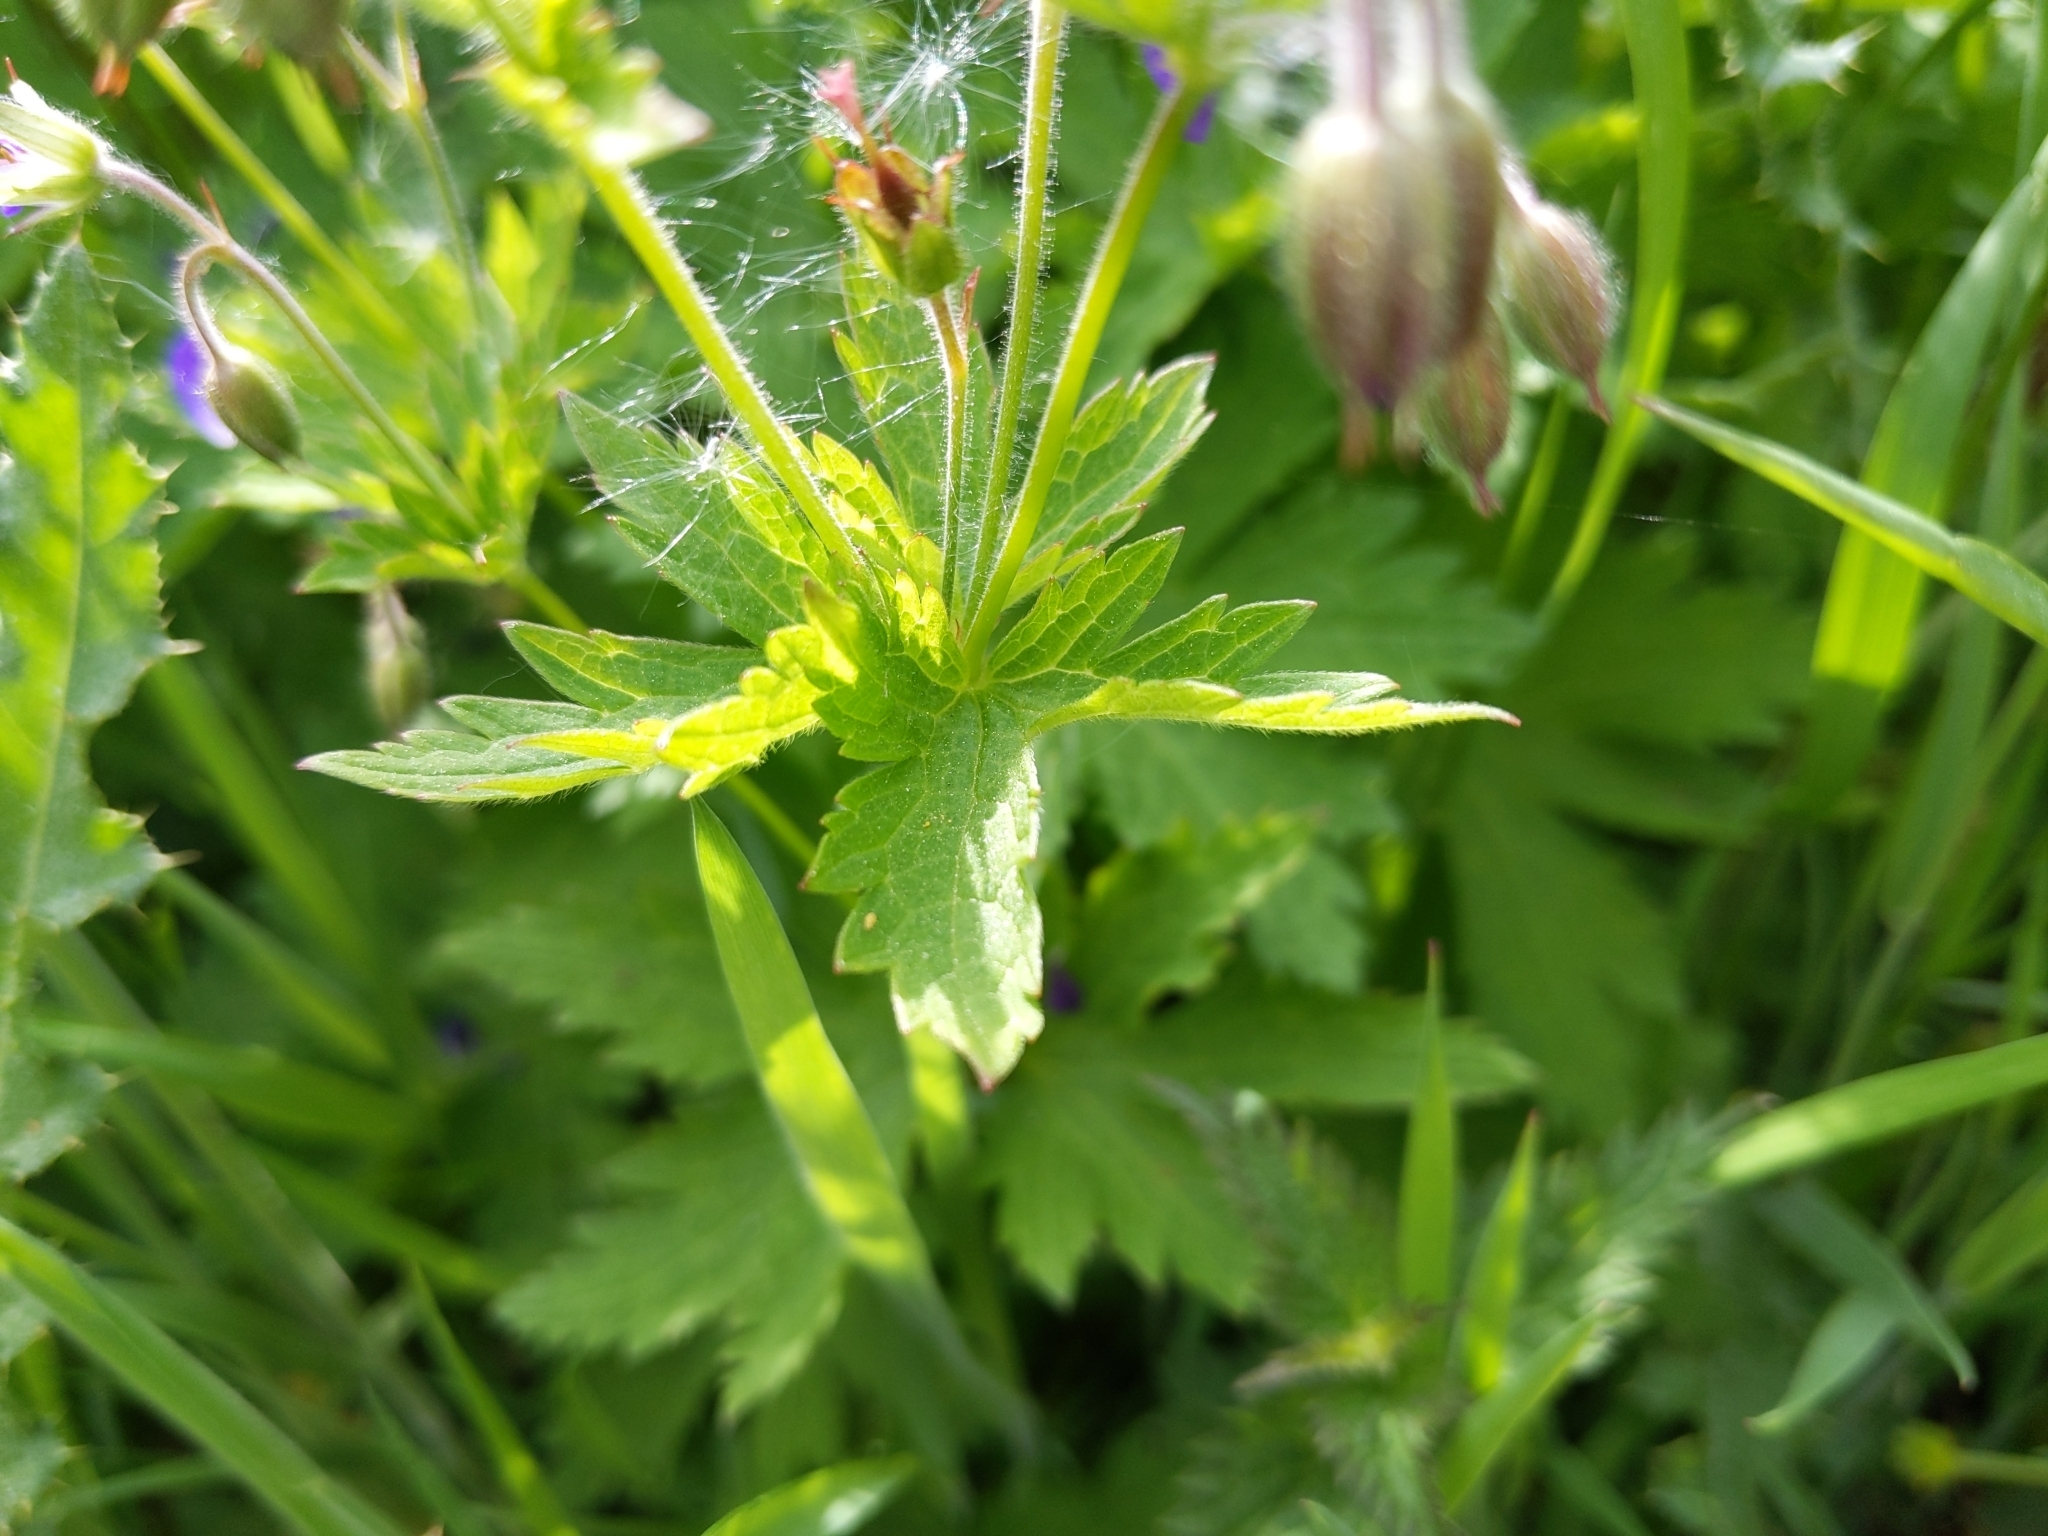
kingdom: Plantae
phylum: Tracheophyta
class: Magnoliopsida
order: Geraniales
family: Geraniaceae
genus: Geranium
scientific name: Geranium sylvaticum
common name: Wood crane's-bill
